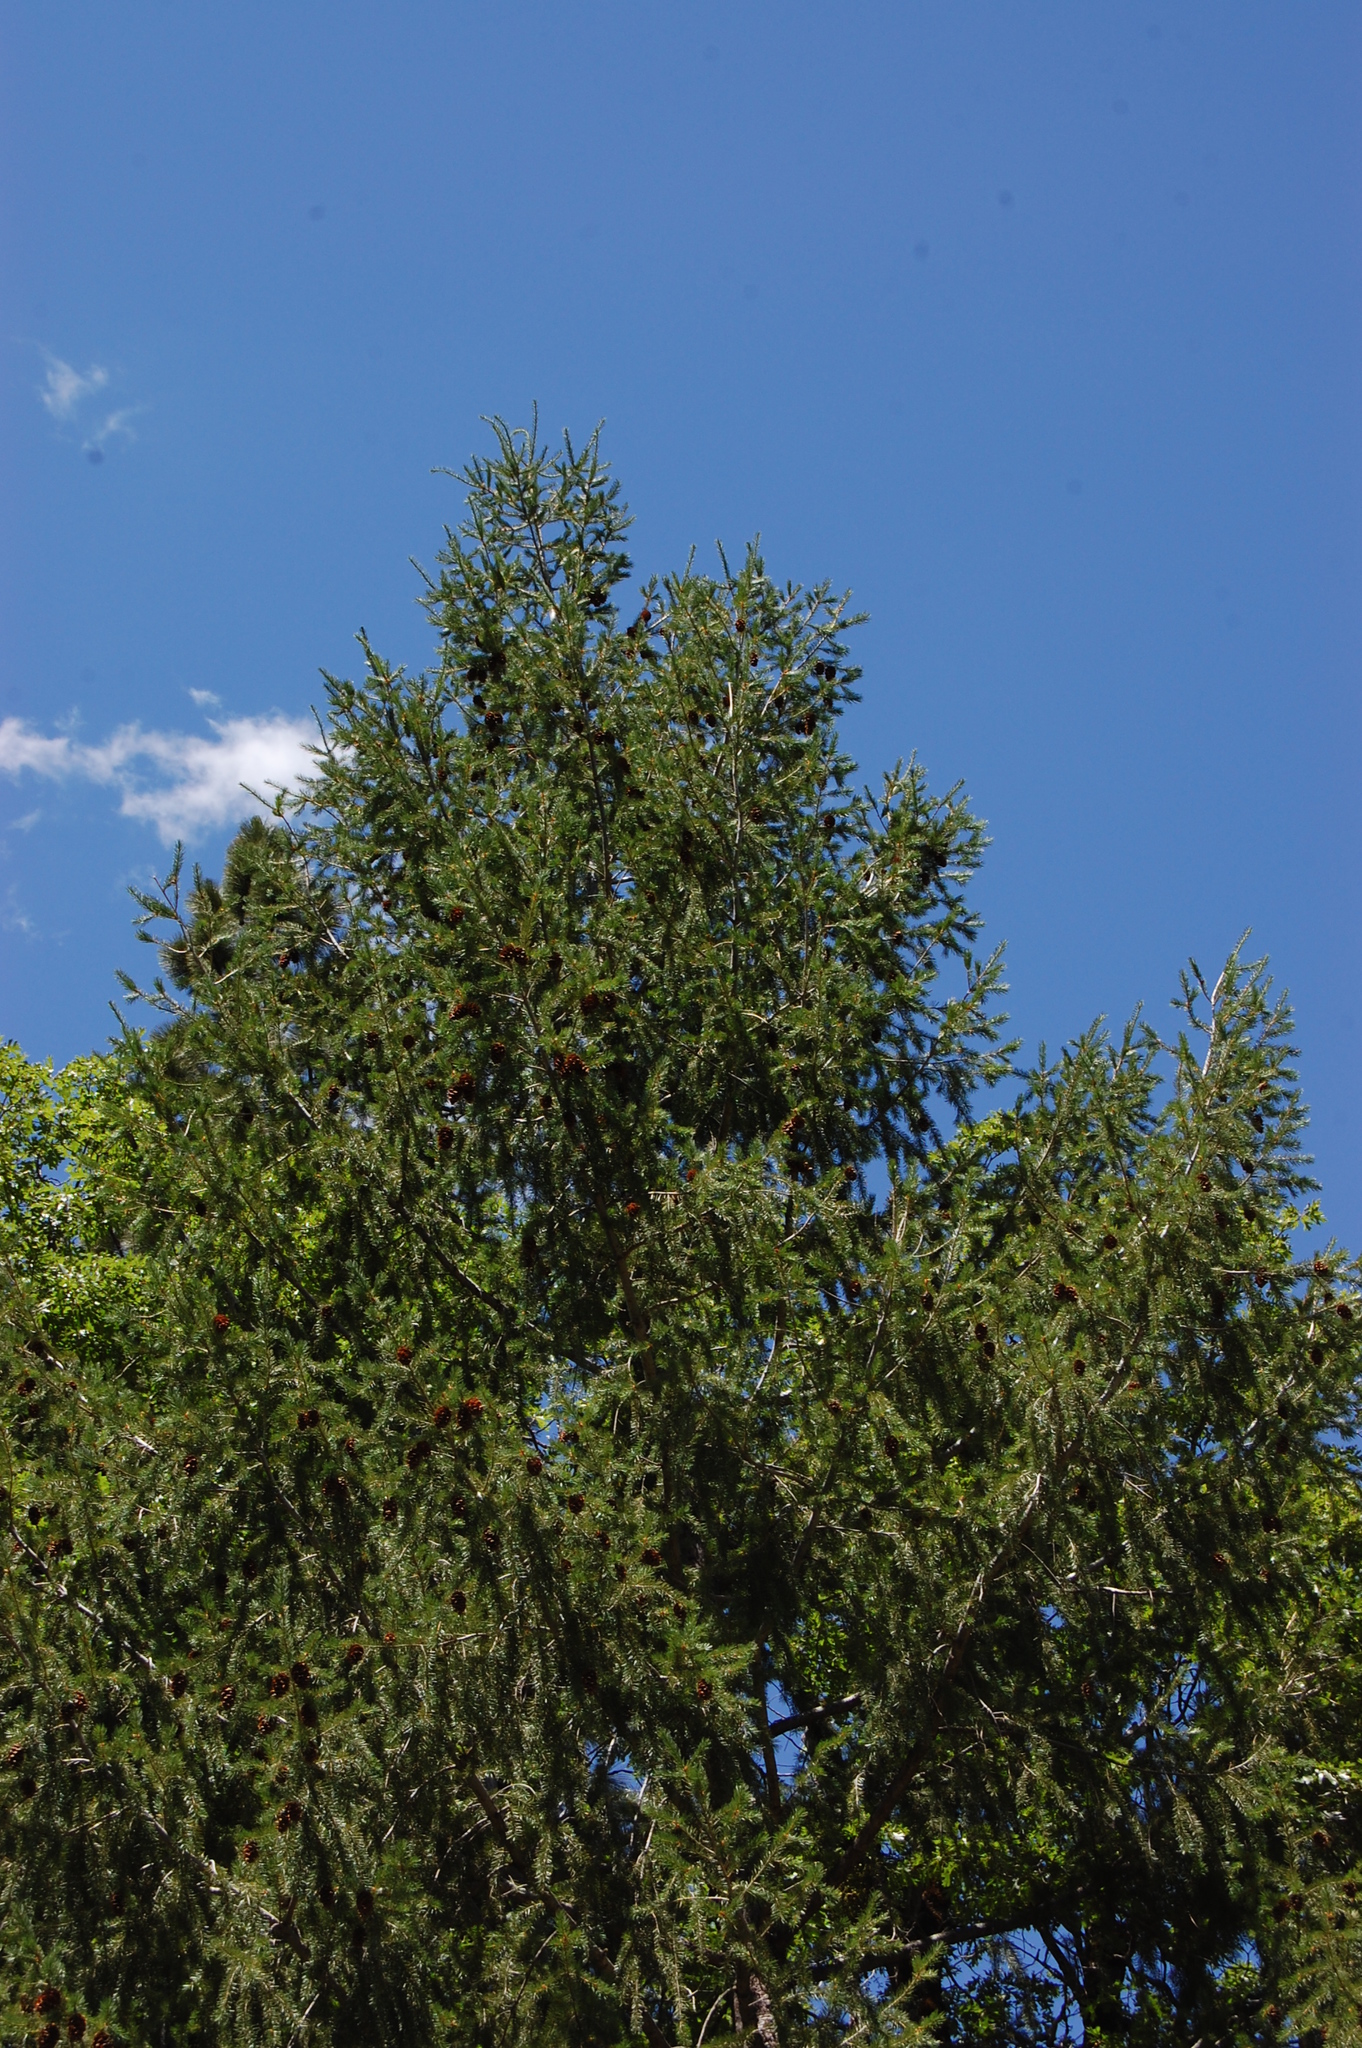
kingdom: Plantae
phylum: Tracheophyta
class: Pinopsida
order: Pinales
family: Pinaceae
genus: Pseudotsuga
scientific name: Pseudotsuga menziesii
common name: Douglas fir
